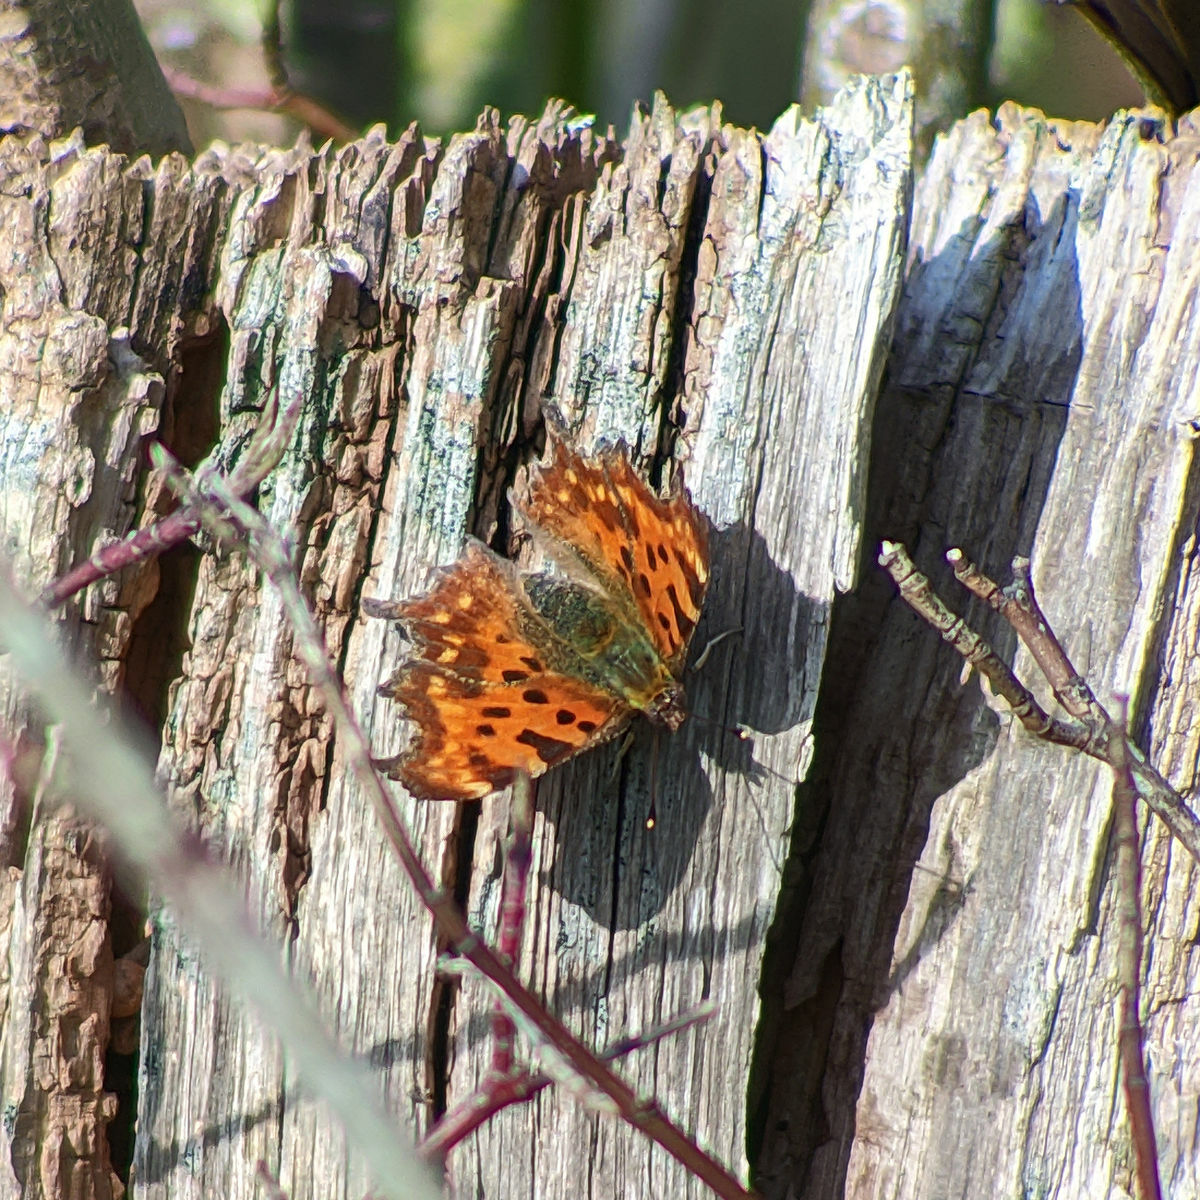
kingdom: Animalia
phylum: Arthropoda
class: Insecta
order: Lepidoptera
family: Nymphalidae
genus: Polygonia
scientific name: Polygonia c-album
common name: Comma
